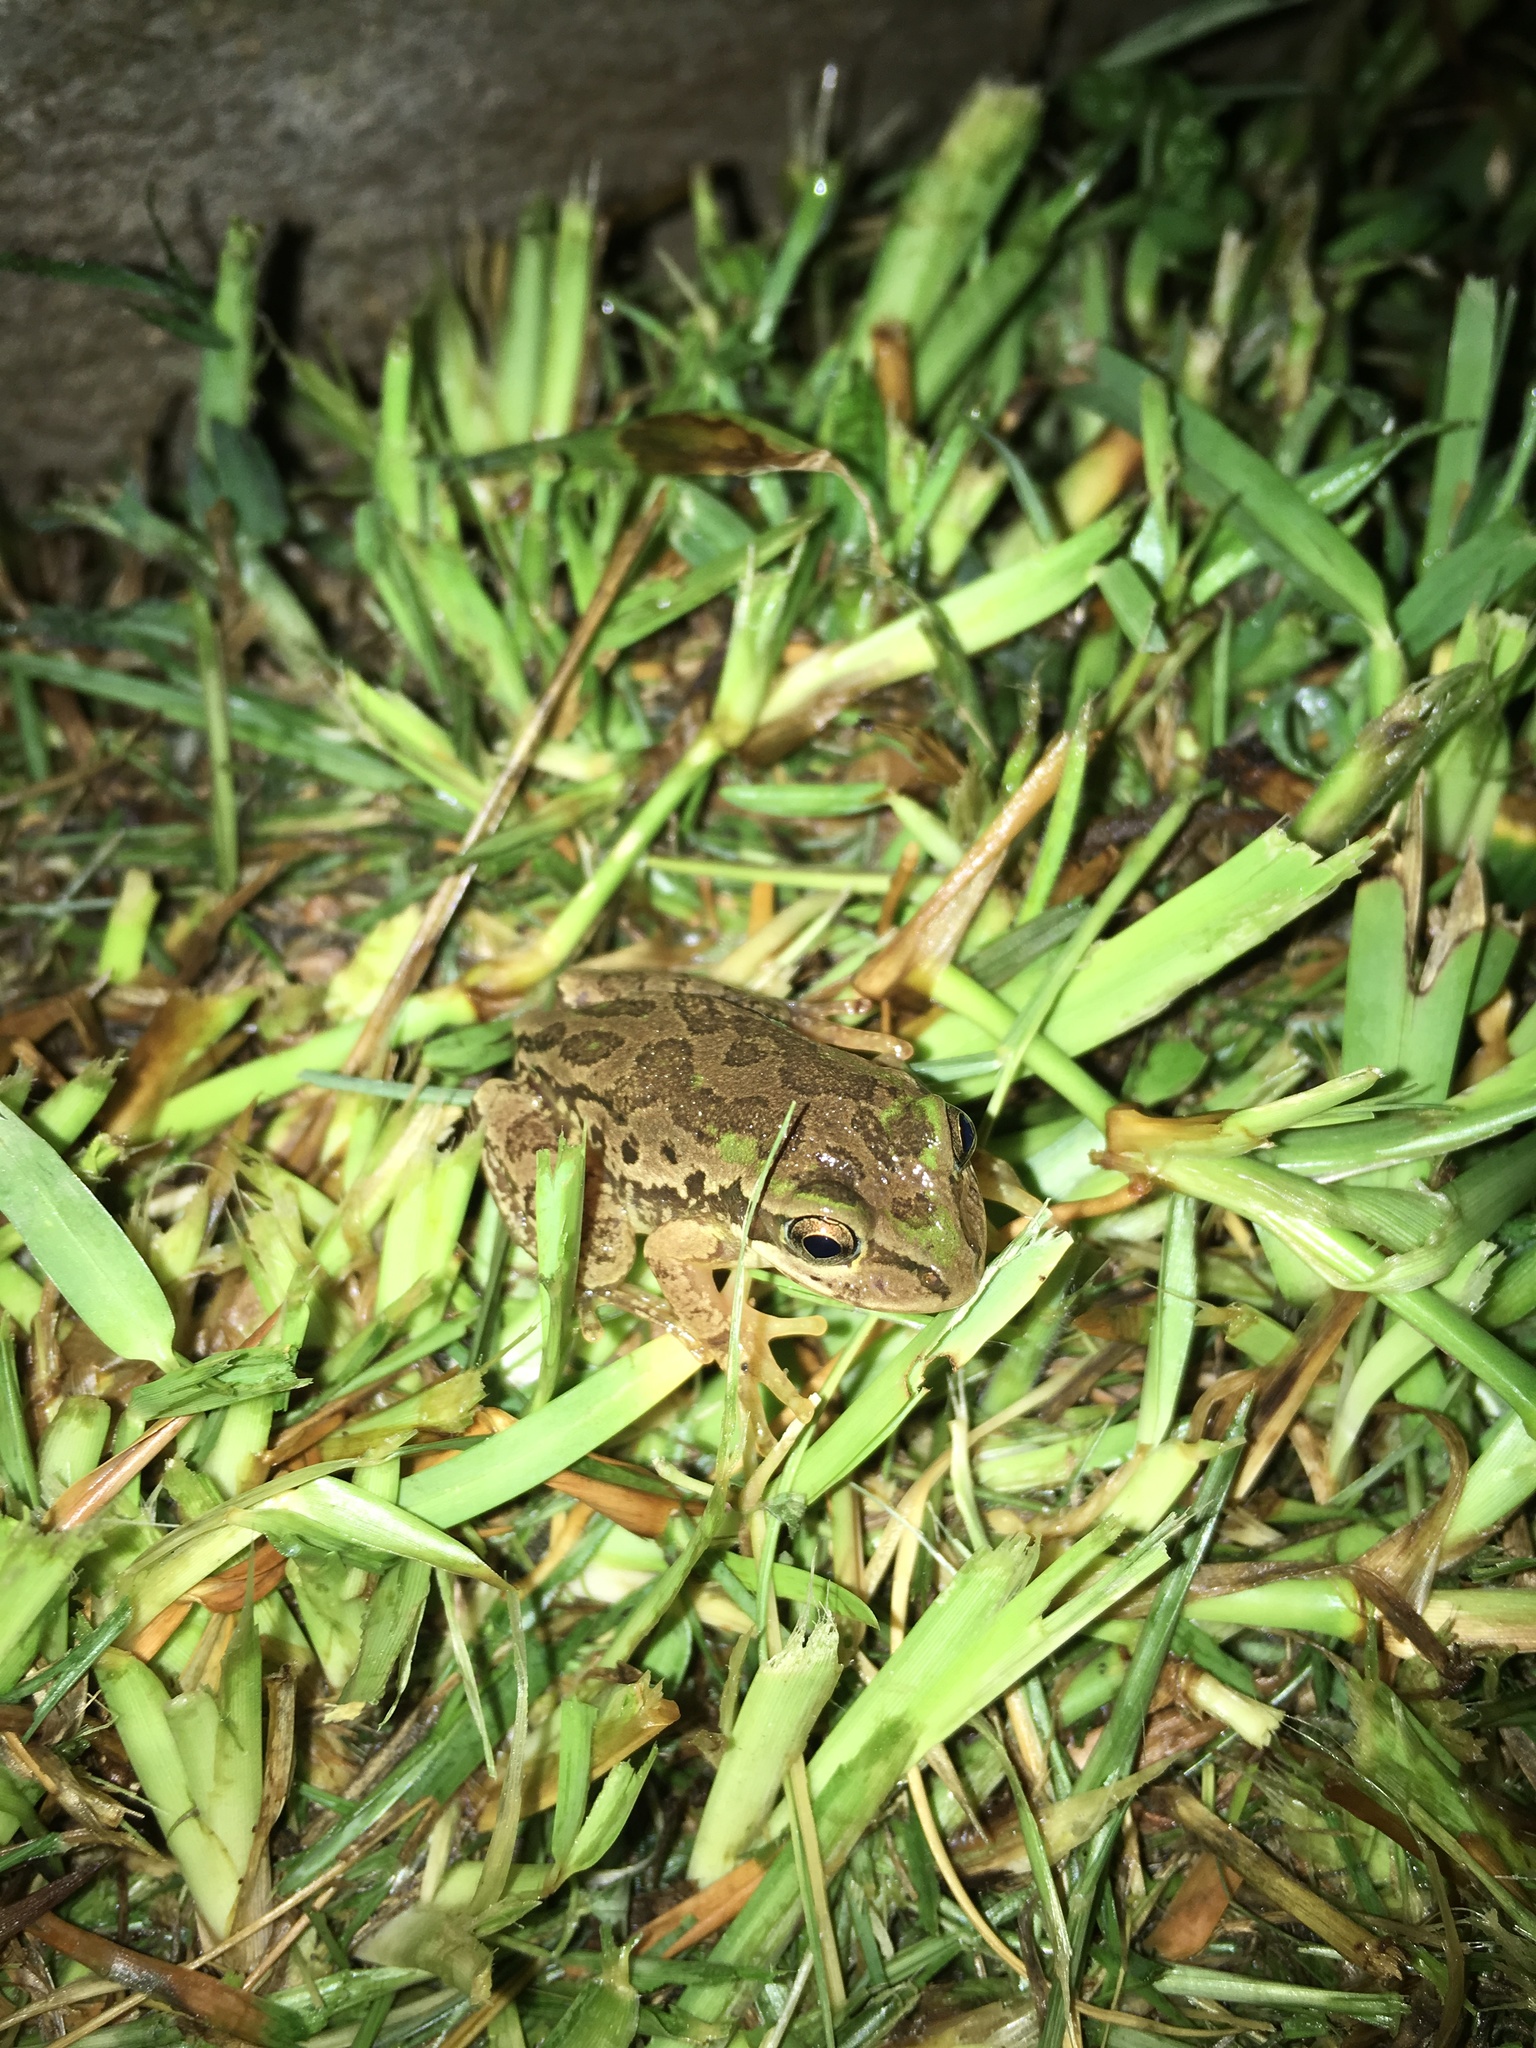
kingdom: Animalia
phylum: Chordata
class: Amphibia
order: Anura
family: Hylidae
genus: Smilisca
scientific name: Smilisca fodiens
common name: Lowland burrowing treefrog
